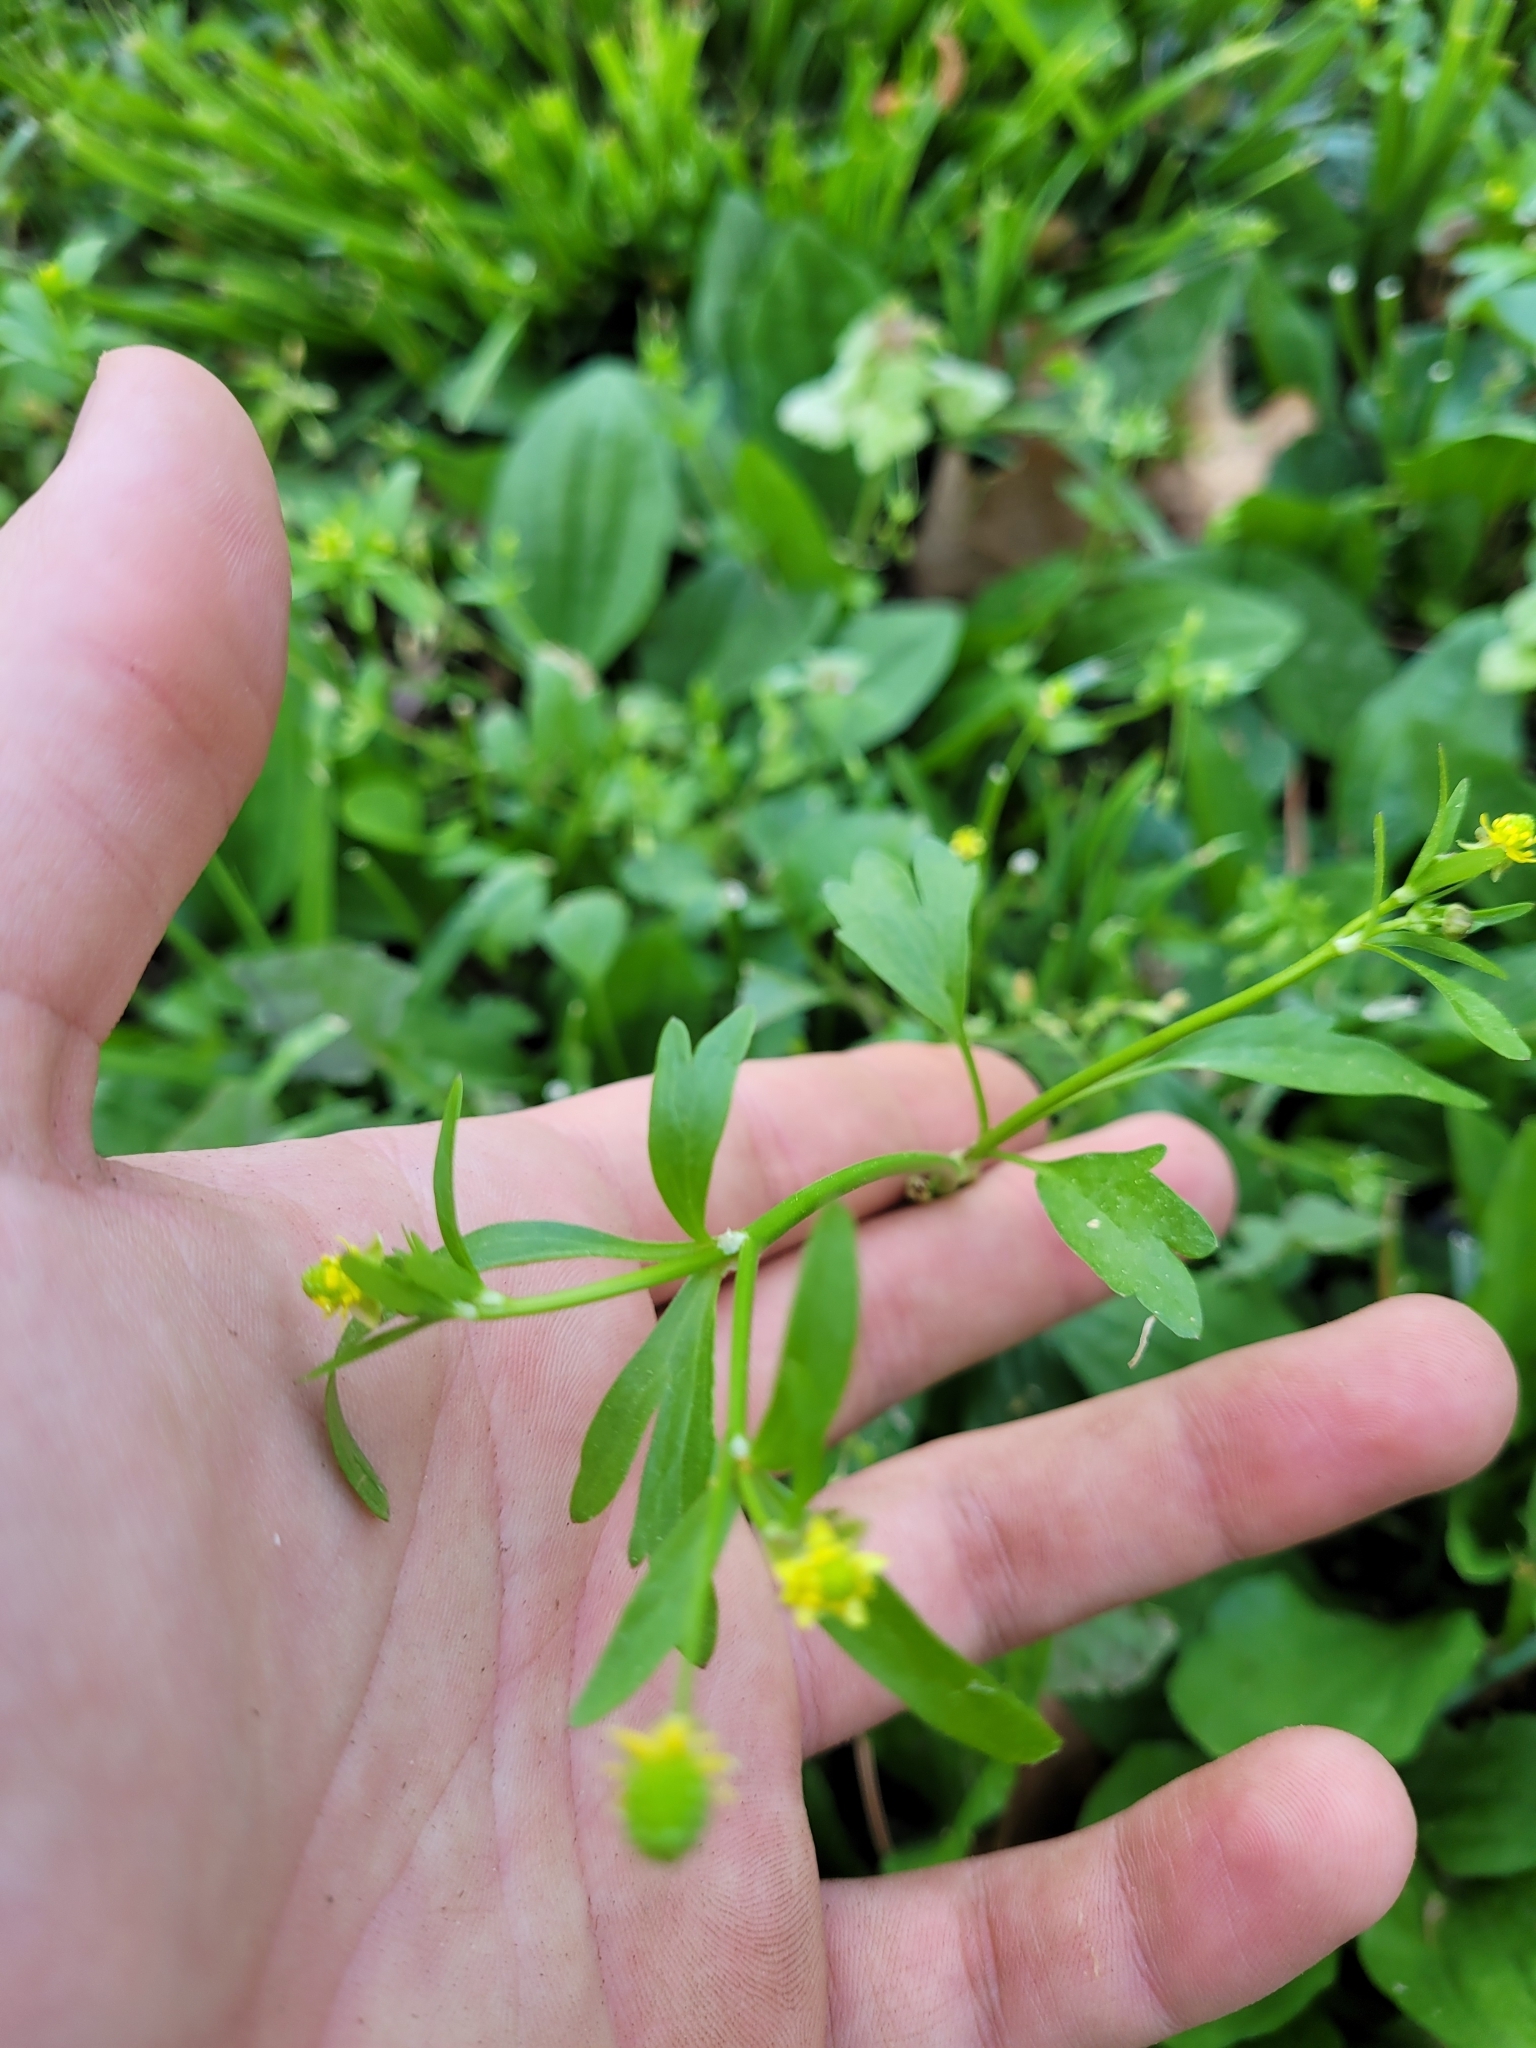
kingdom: Plantae
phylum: Tracheophyta
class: Magnoliopsida
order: Ranunculales
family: Ranunculaceae
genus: Ranunculus
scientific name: Ranunculus abortivus
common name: Early wood buttercup
